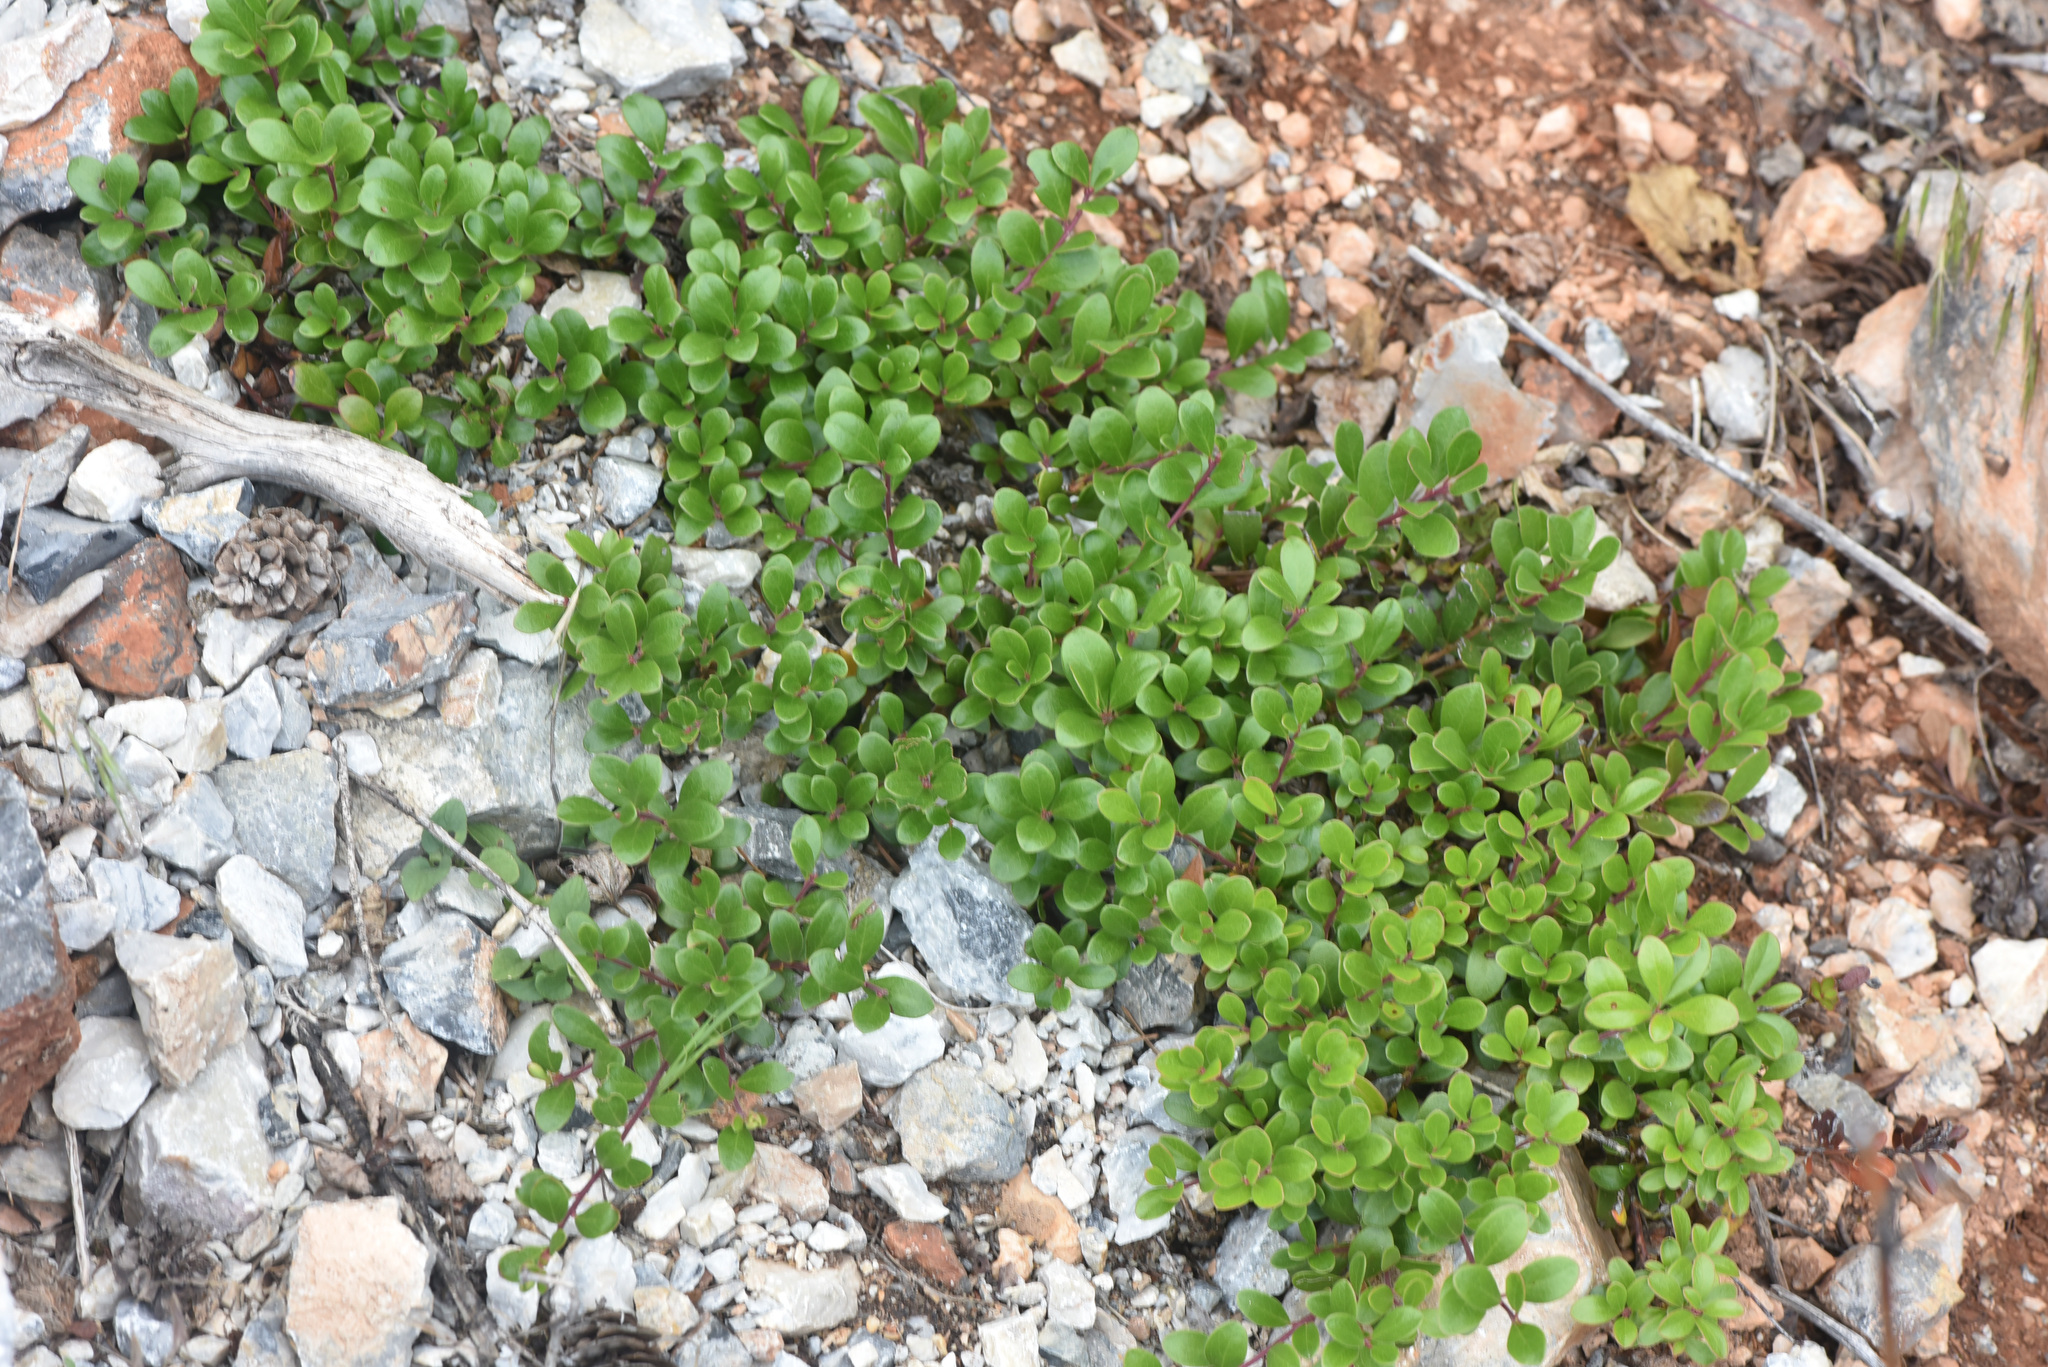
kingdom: Plantae
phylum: Tracheophyta
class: Magnoliopsida
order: Ericales
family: Ericaceae
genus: Arctostaphylos
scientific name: Arctostaphylos uva-ursi
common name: Bearberry
